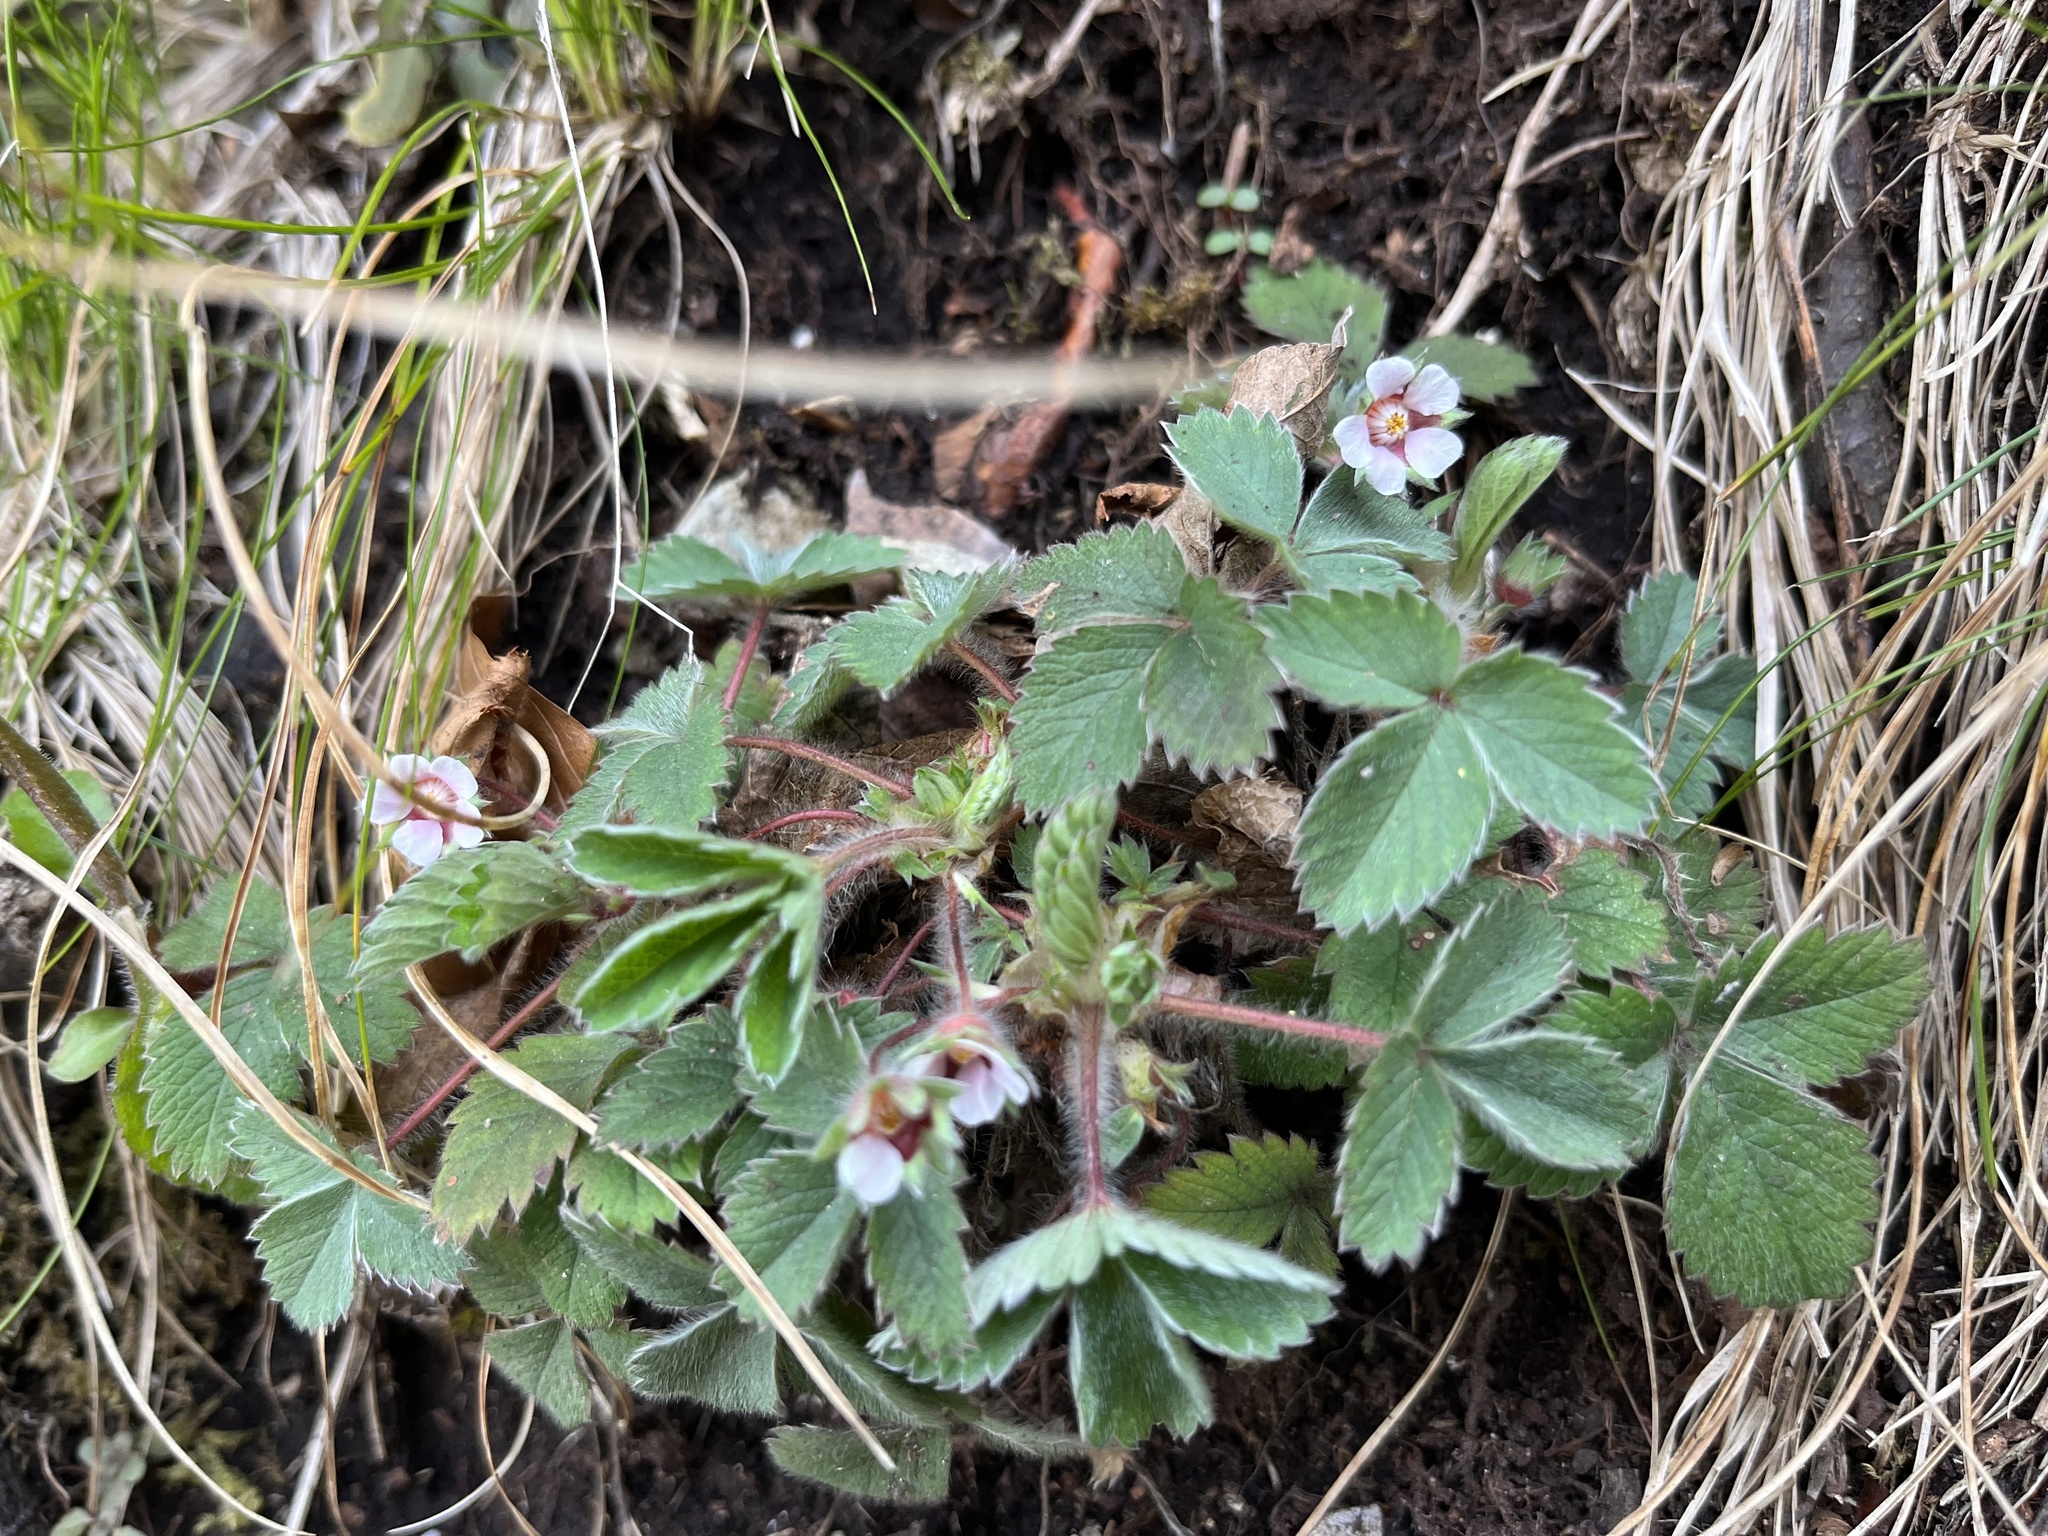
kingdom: Plantae
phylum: Tracheophyta
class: Magnoliopsida
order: Rosales
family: Rosaceae
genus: Potentilla
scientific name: Potentilla micrantha
